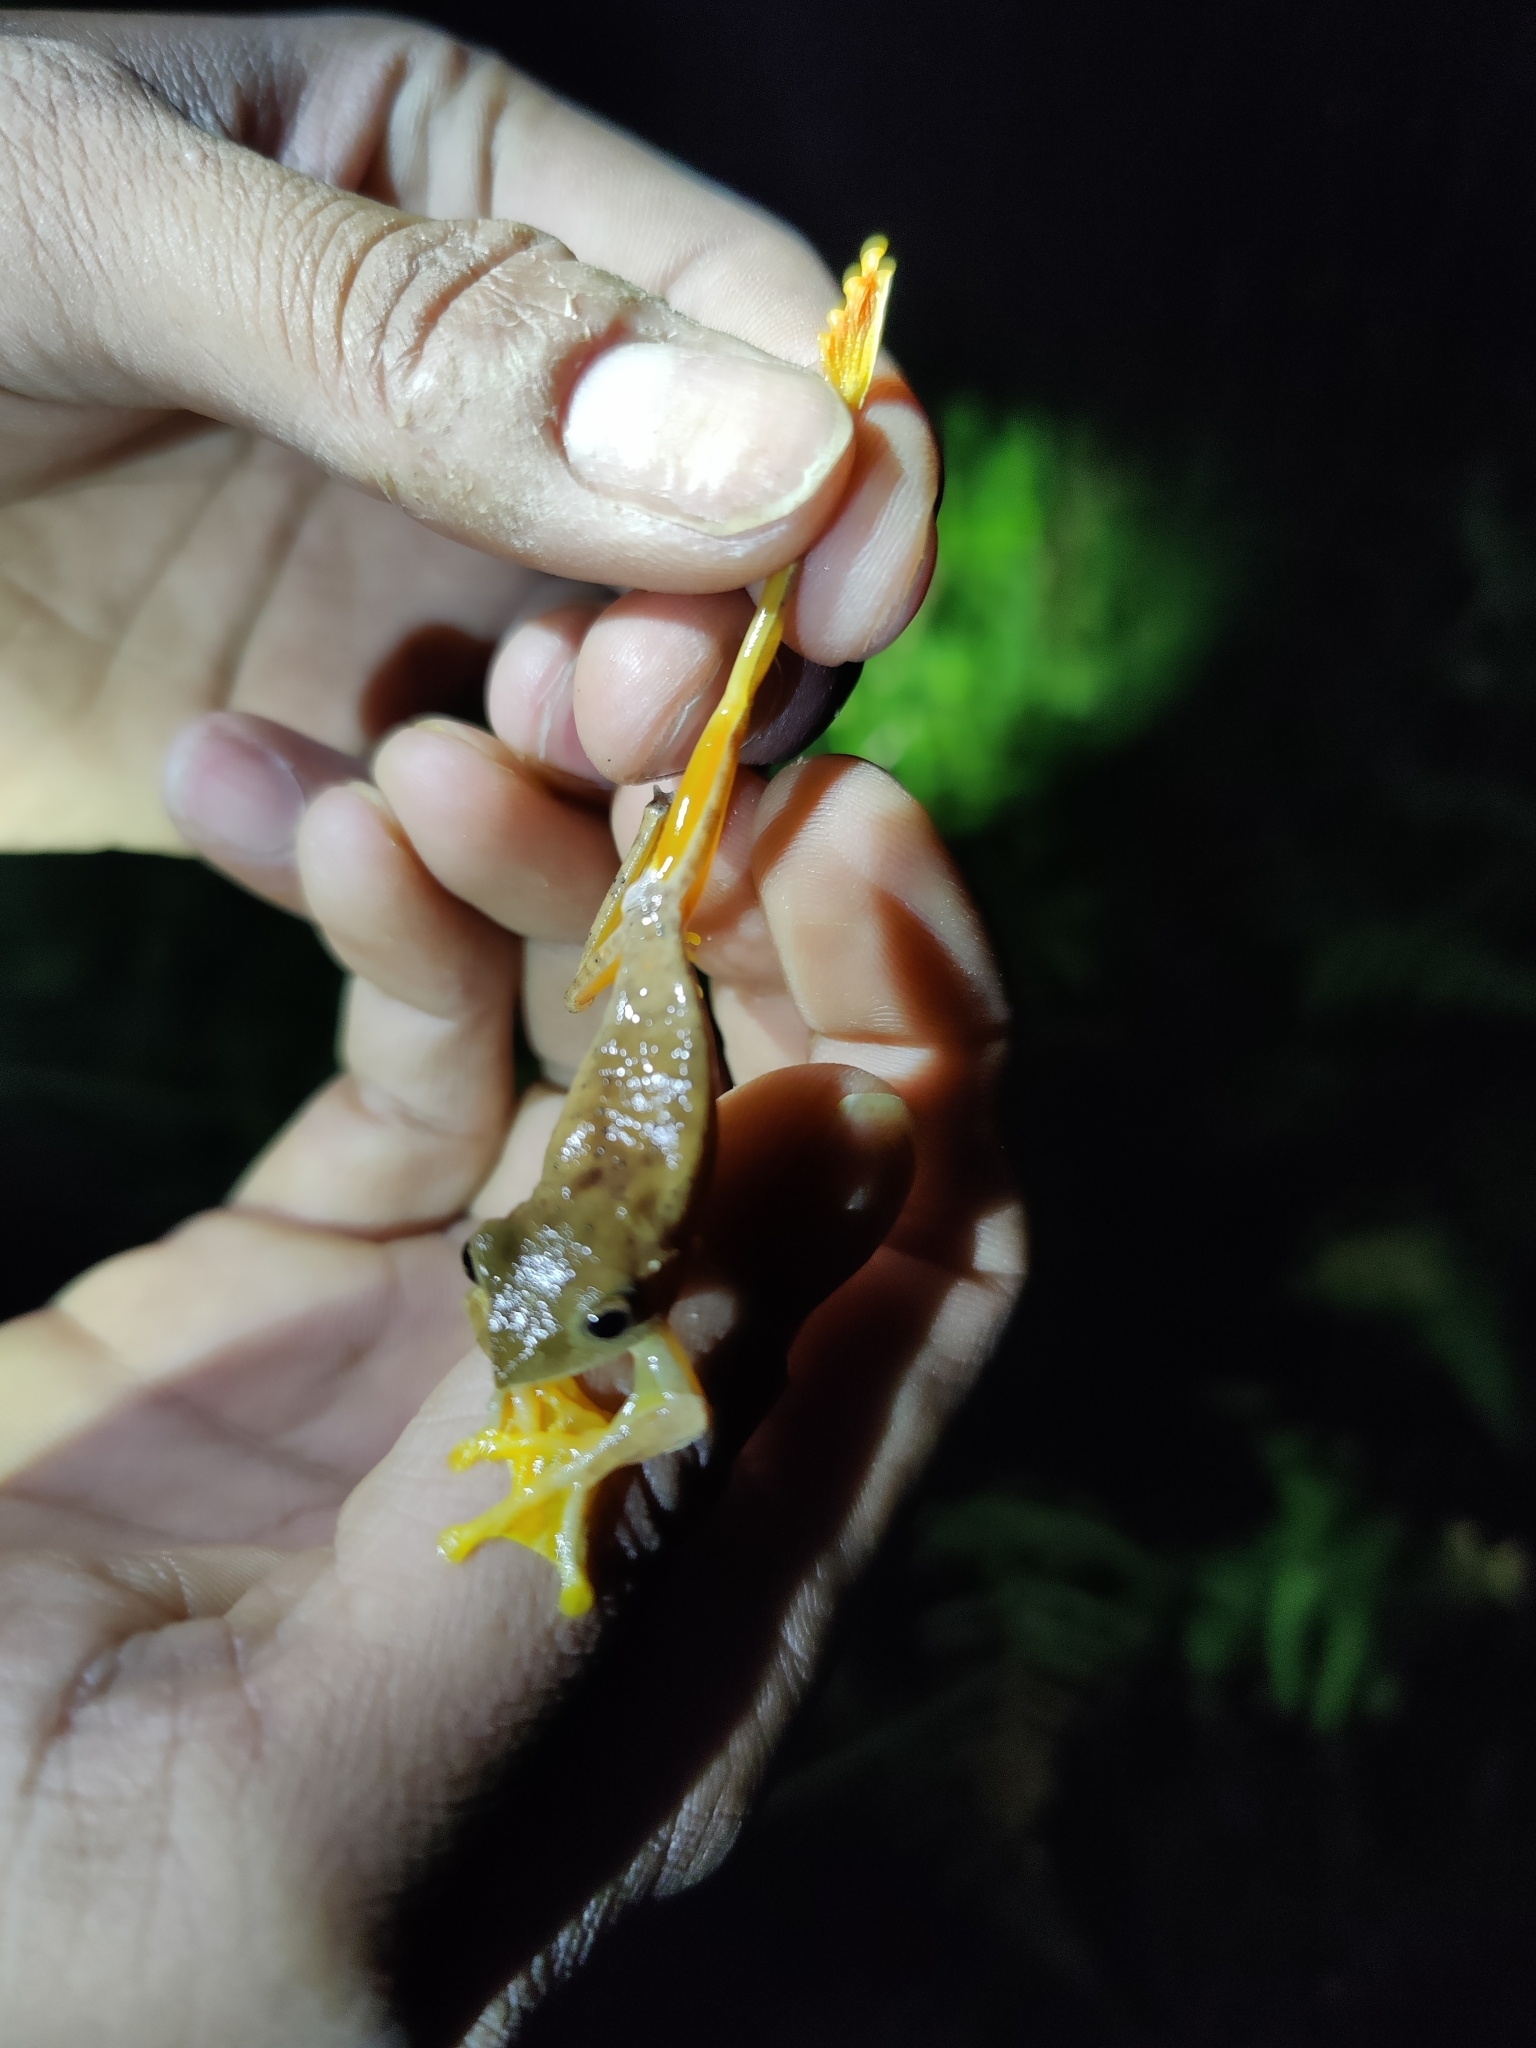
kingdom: Animalia
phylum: Chordata
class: Amphibia
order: Anura
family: Rhacophoridae
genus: Rhacophorus
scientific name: Rhacophorus subansiriensis
